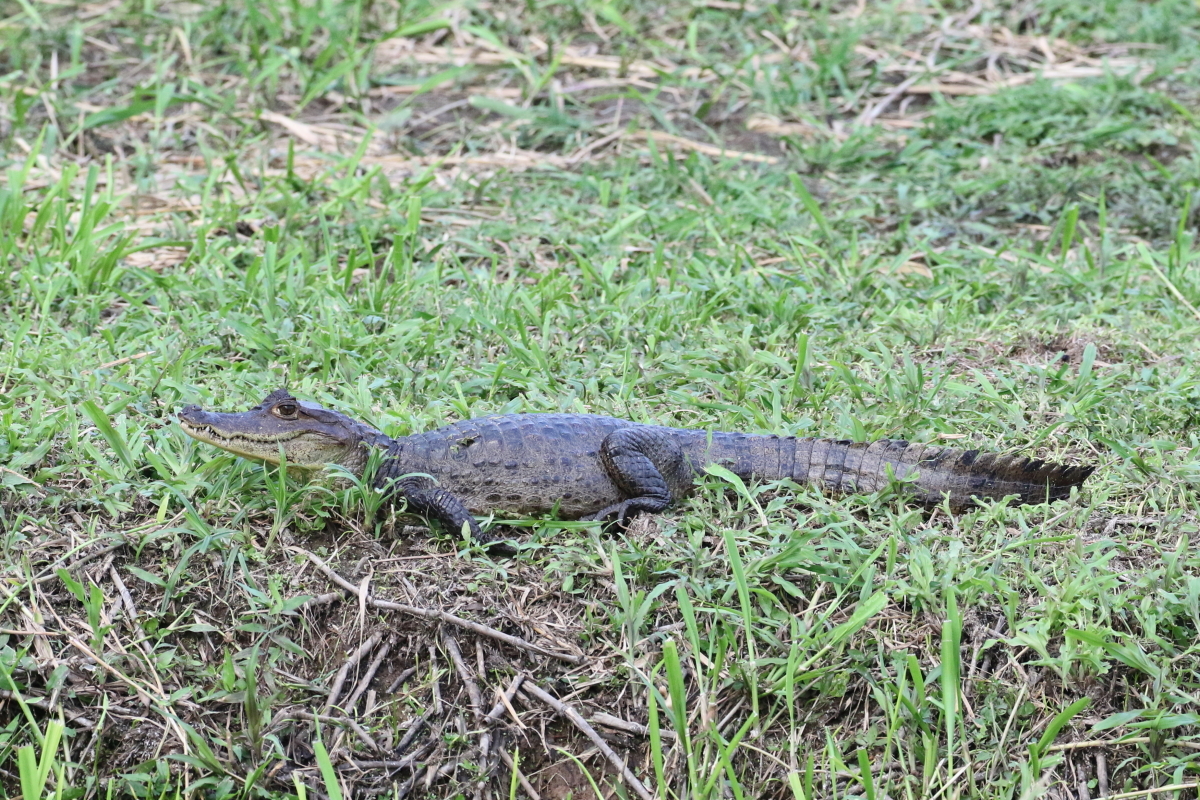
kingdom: Animalia
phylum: Chordata
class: Crocodylia
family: Alligatoridae
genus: Caiman
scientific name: Caiman crocodilus
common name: Common caiman
